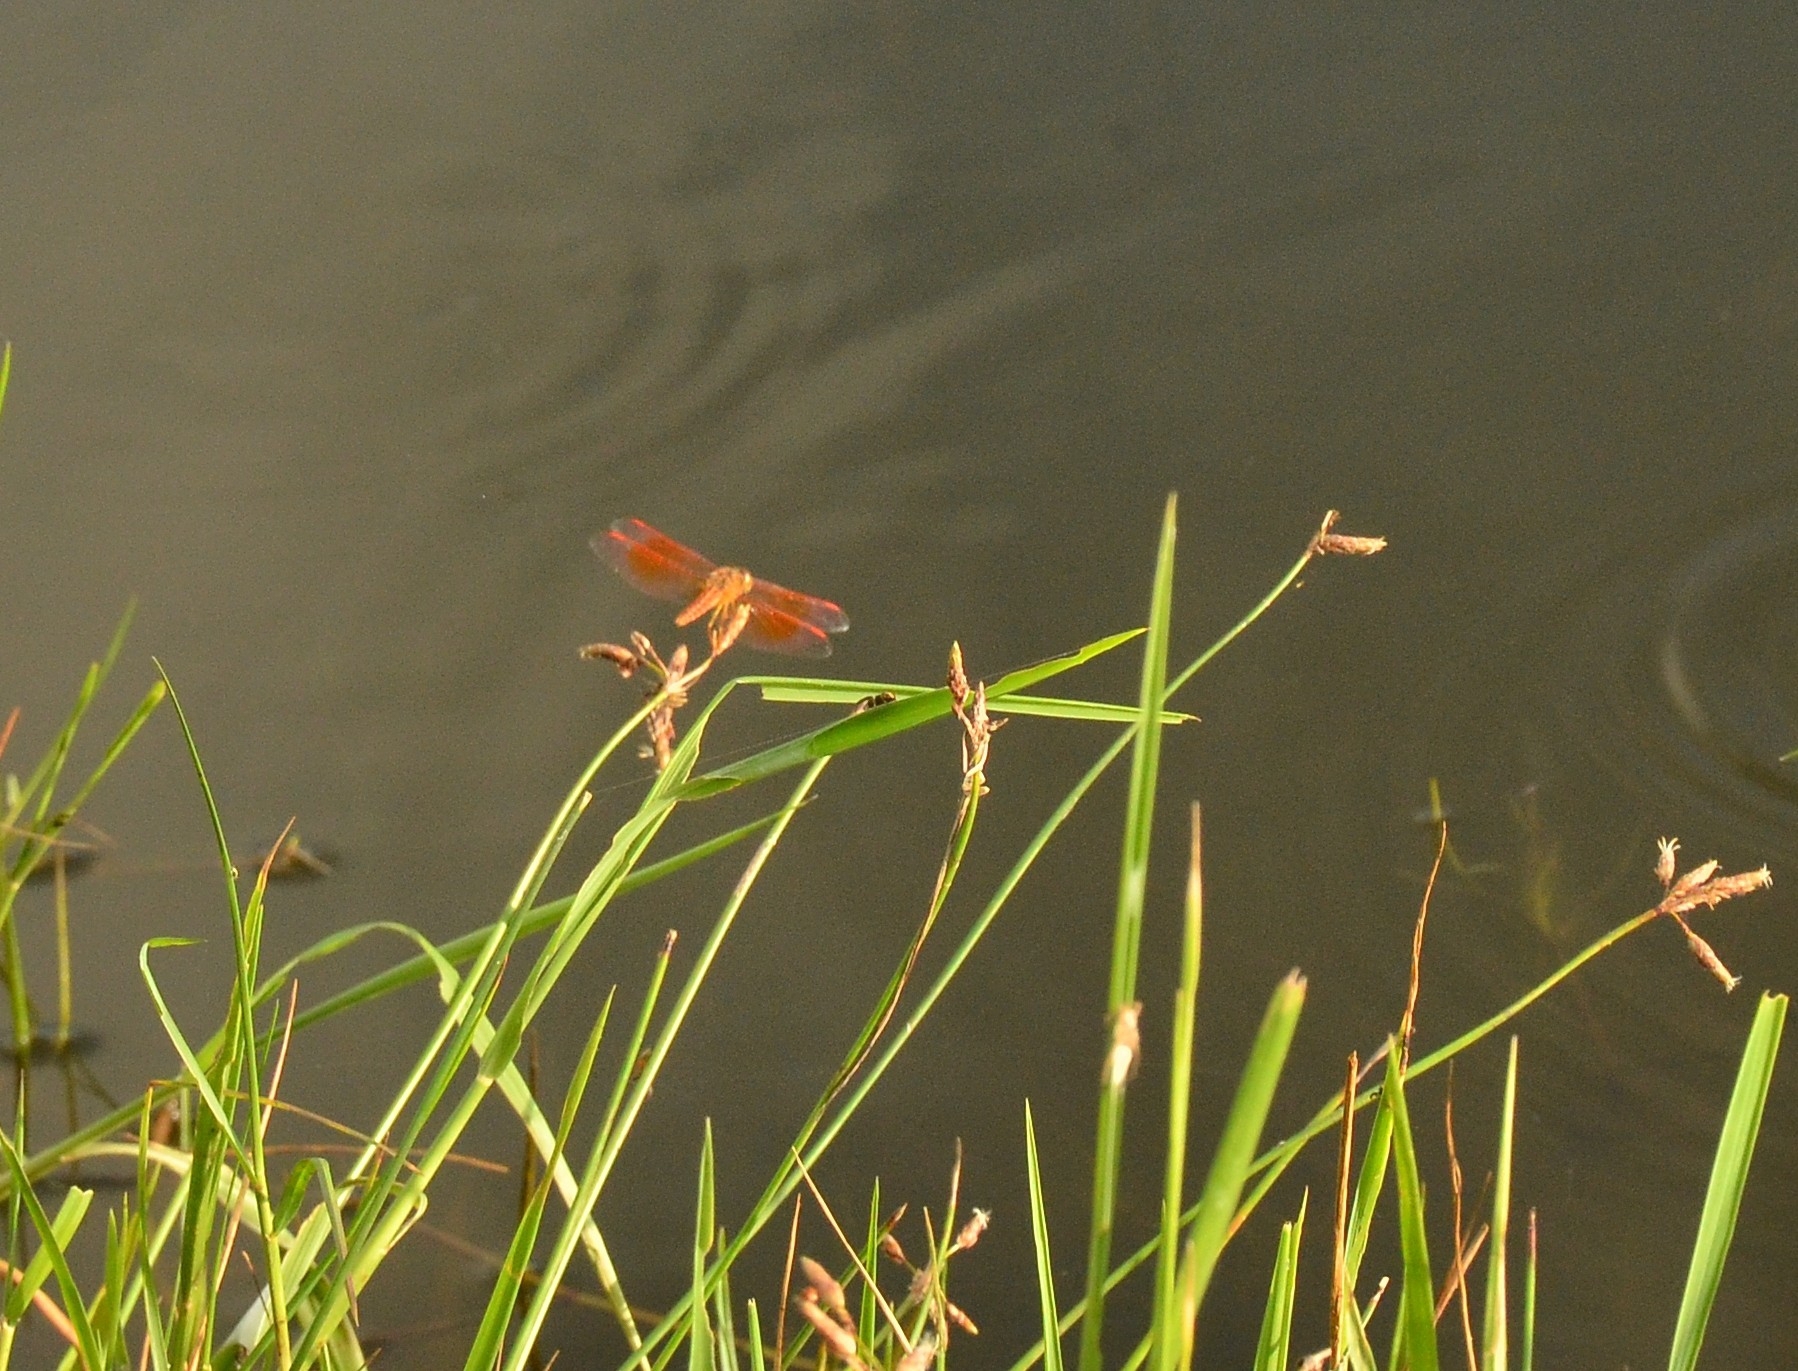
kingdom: Animalia
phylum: Arthropoda
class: Insecta
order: Odonata
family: Libellulidae
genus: Brachythemis
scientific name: Brachythemis contaminata
